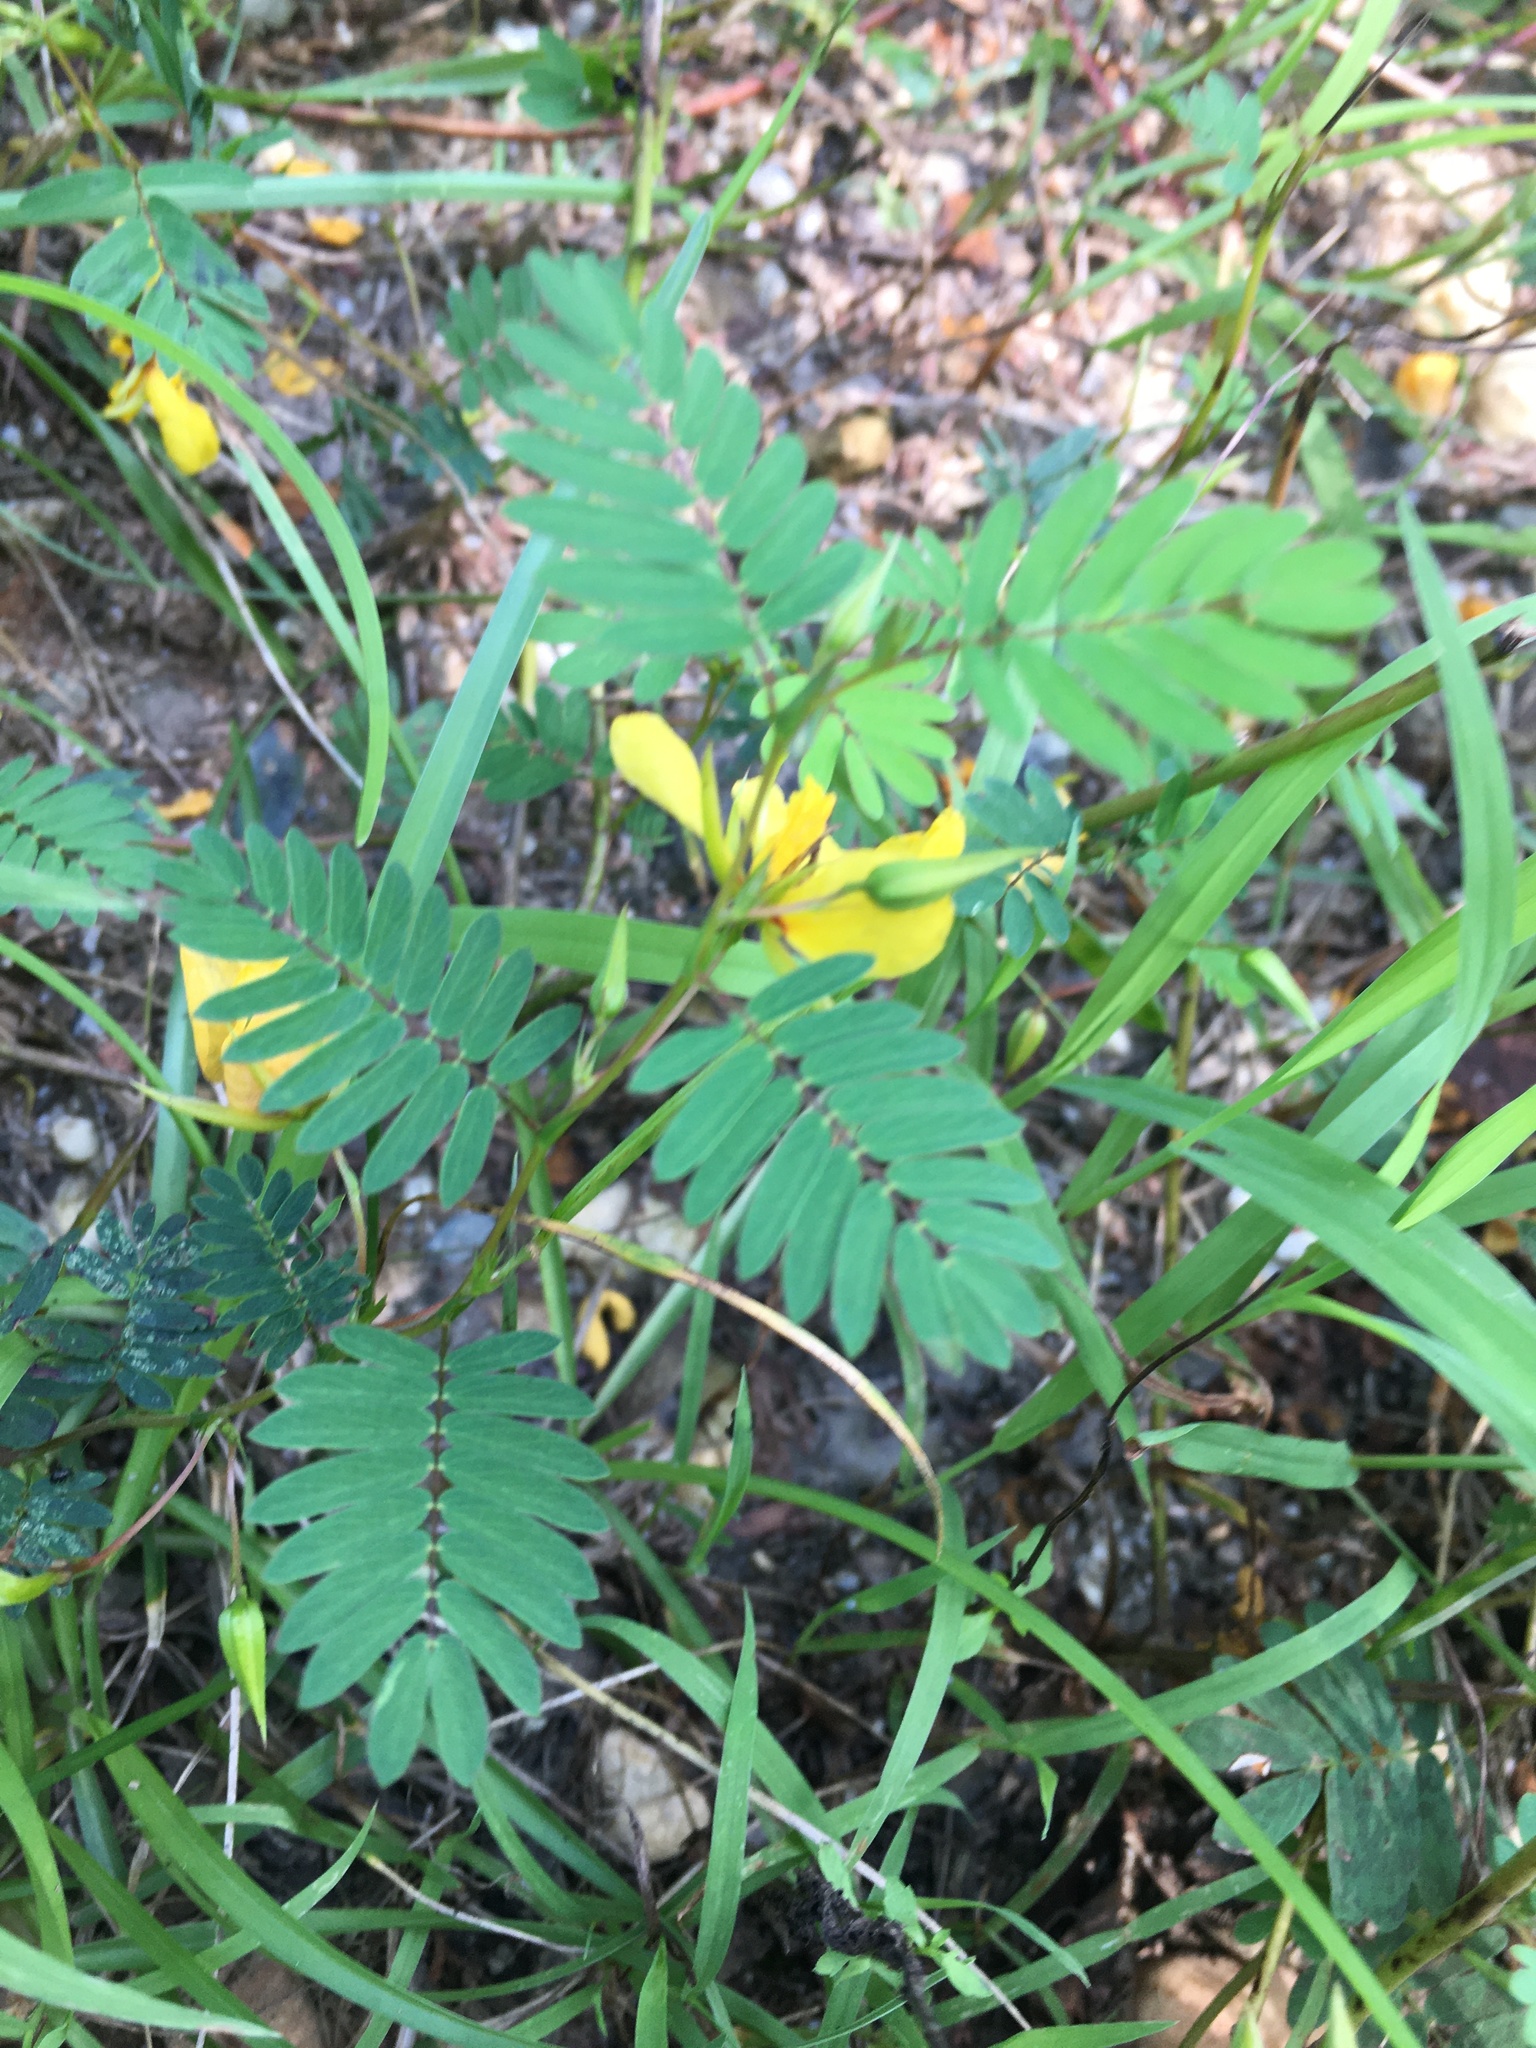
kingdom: Plantae
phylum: Tracheophyta
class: Magnoliopsida
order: Fabales
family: Fabaceae
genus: Chamaecrista
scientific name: Chamaecrista fasciculata
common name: Golden cassia
